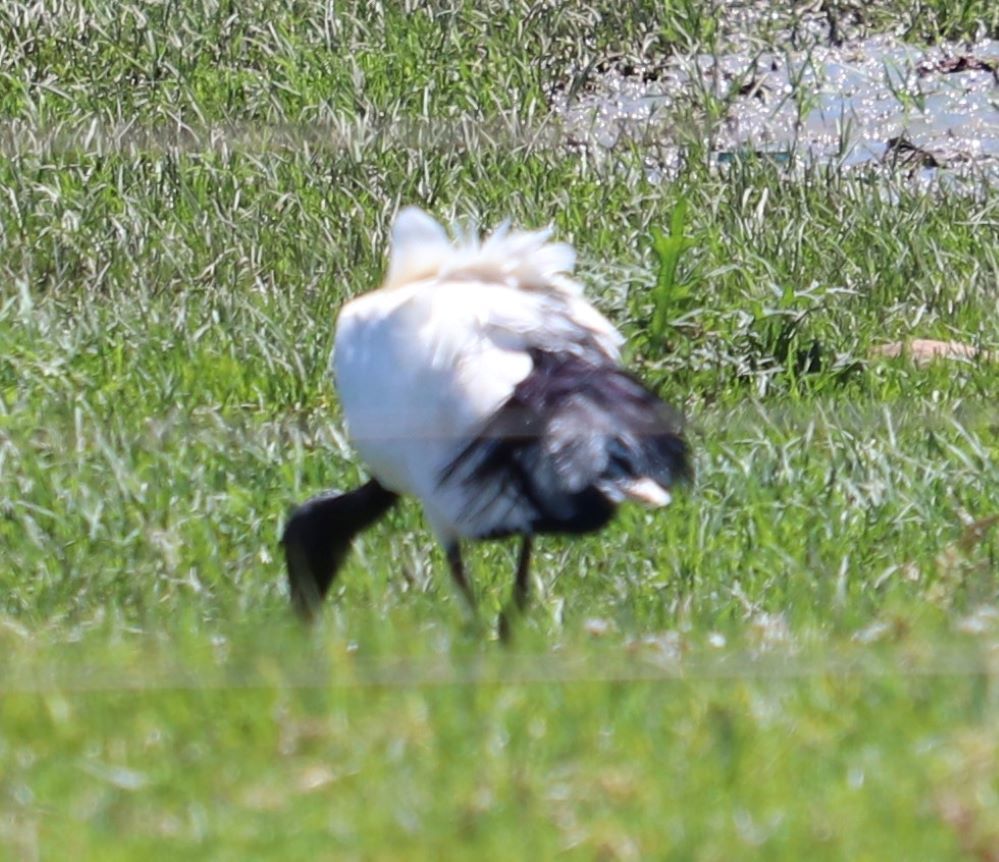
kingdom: Animalia
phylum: Chordata
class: Aves
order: Pelecaniformes
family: Threskiornithidae
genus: Threskiornis
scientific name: Threskiornis aethiopicus
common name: Sacred ibis
